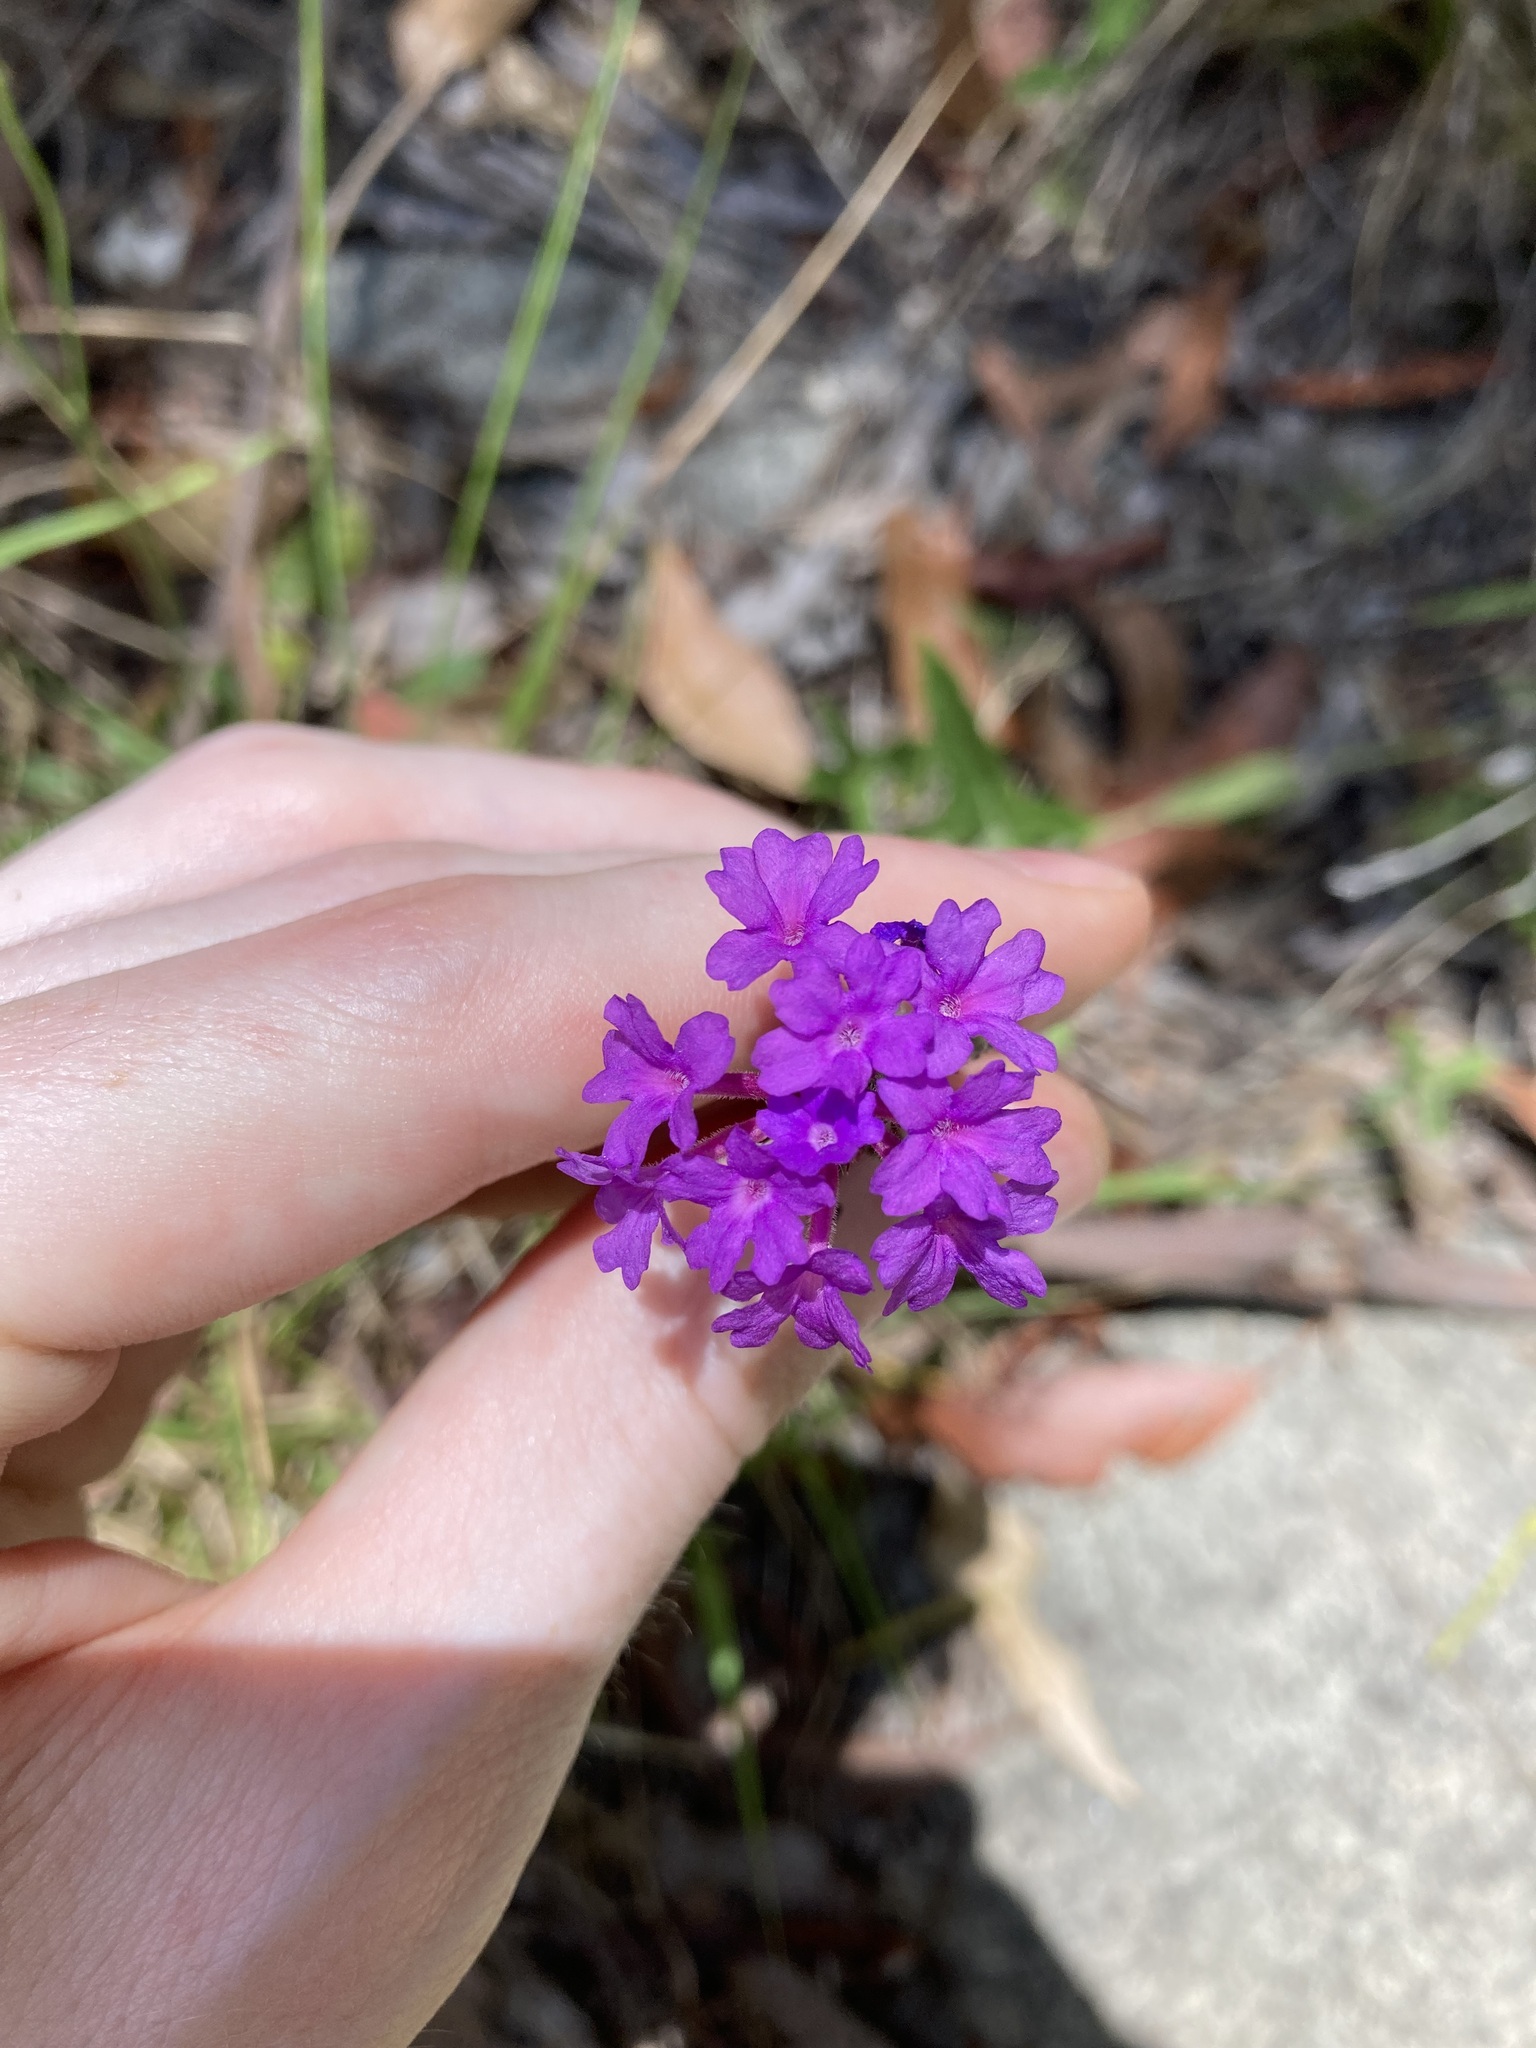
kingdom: Plantae
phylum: Tracheophyta
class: Magnoliopsida
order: Lamiales
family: Verbenaceae
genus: Verbena
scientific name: Verbena rigida
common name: Slender vervain
